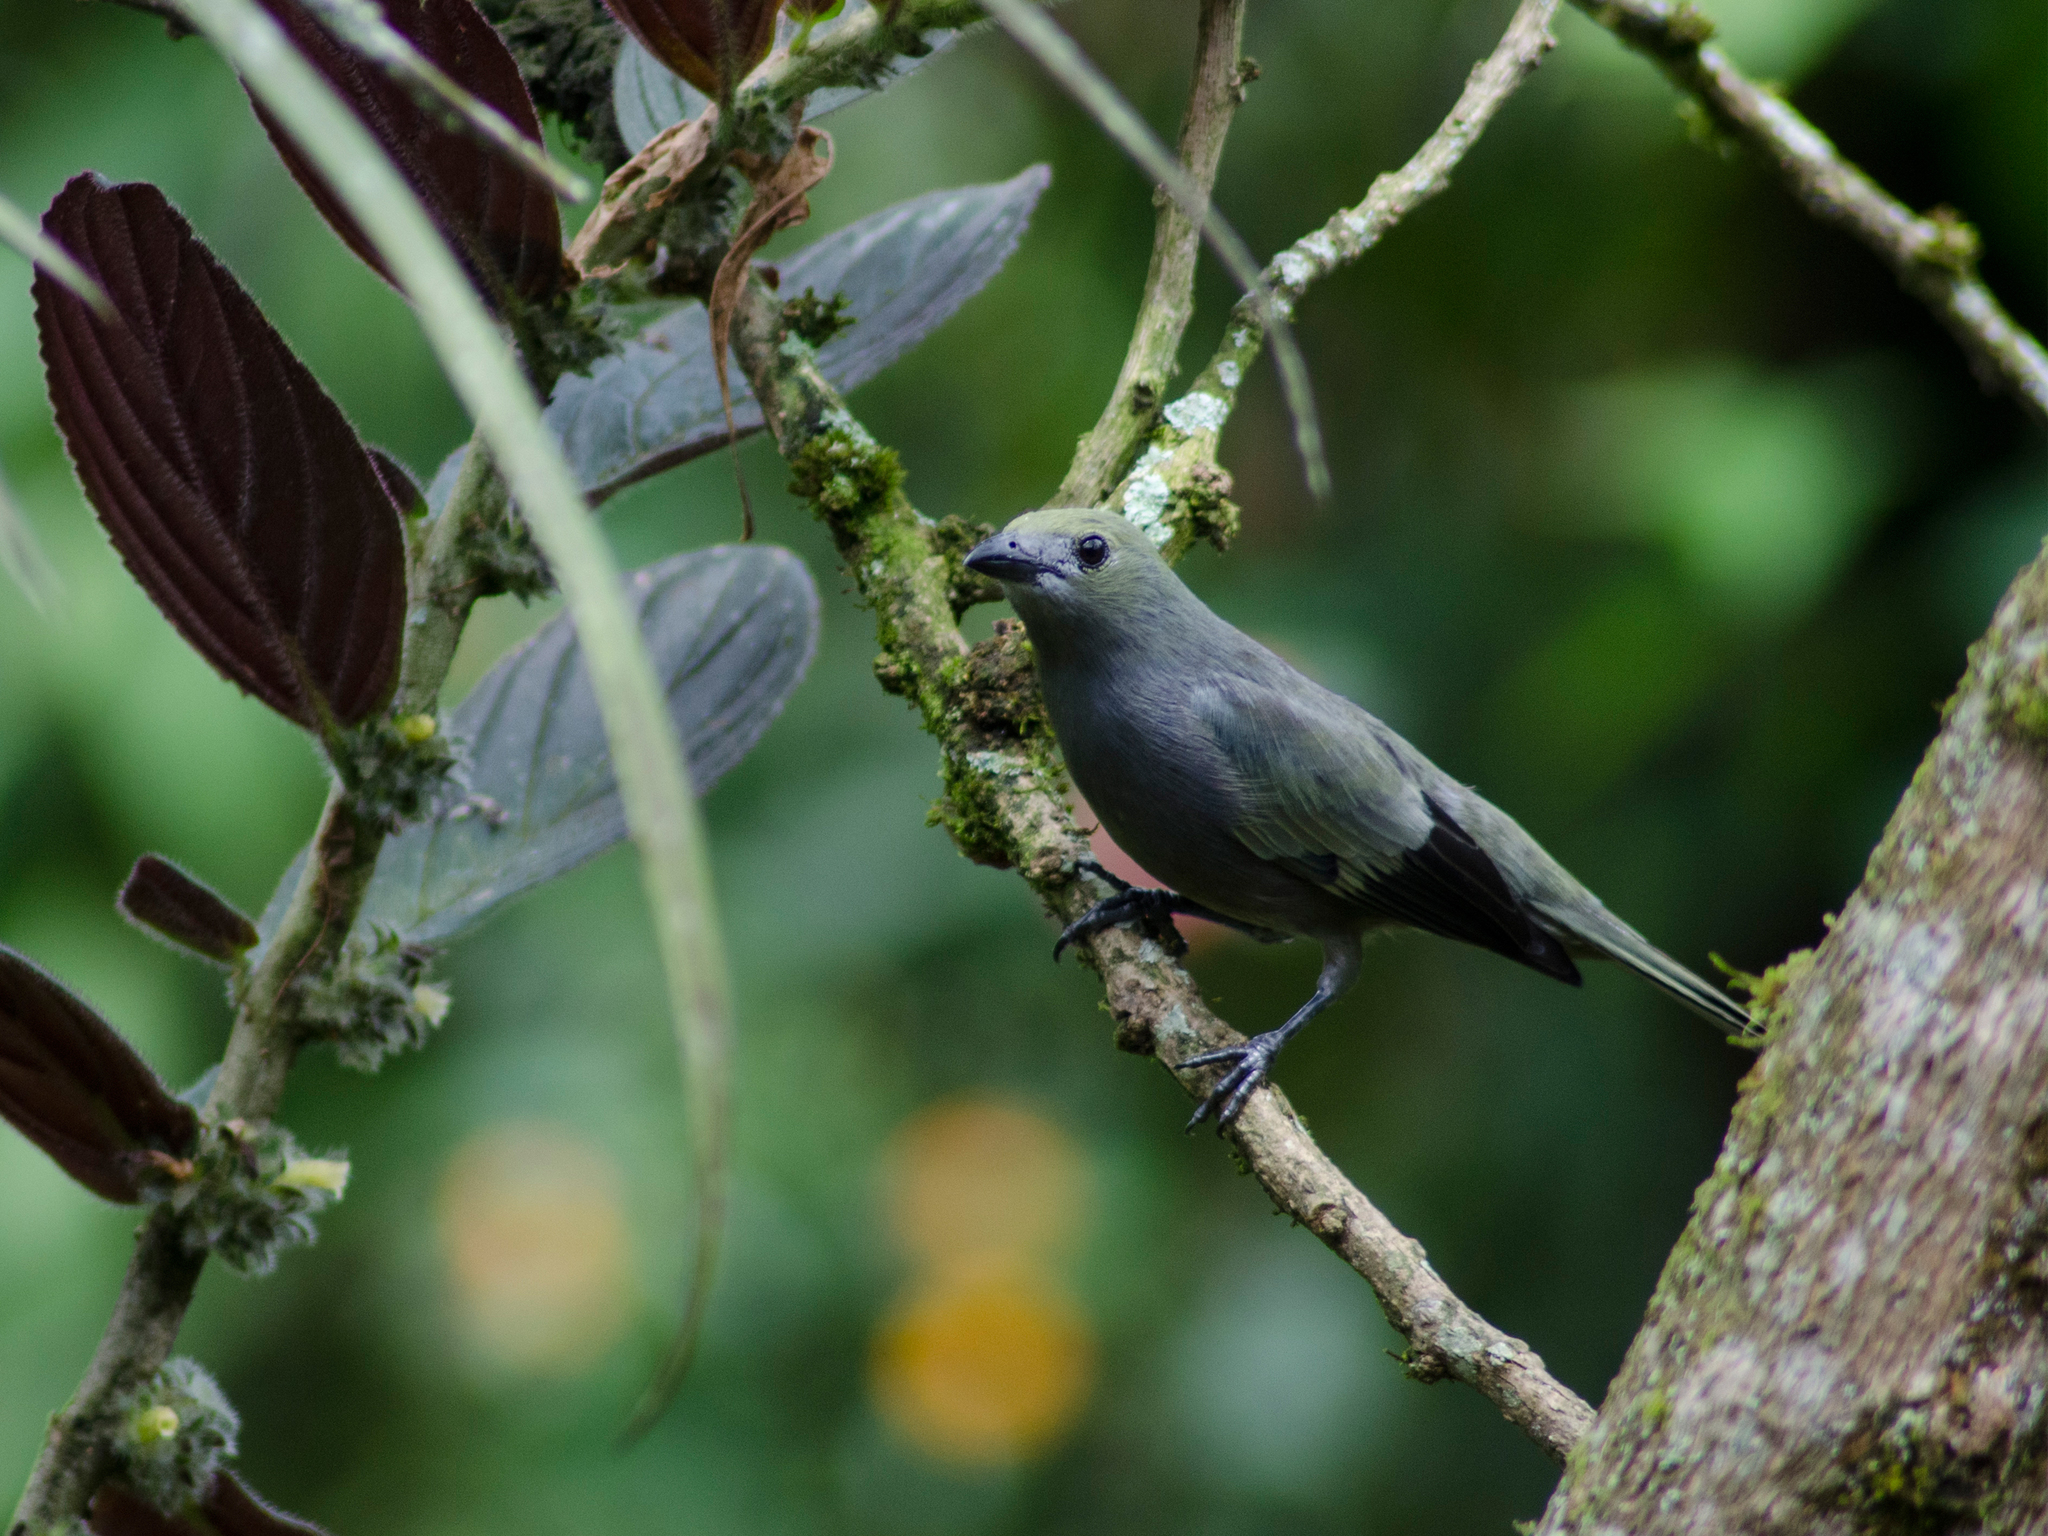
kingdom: Animalia
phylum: Chordata
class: Aves
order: Passeriformes
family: Thraupidae
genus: Thraupis
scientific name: Thraupis palmarum
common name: Palm tanager
